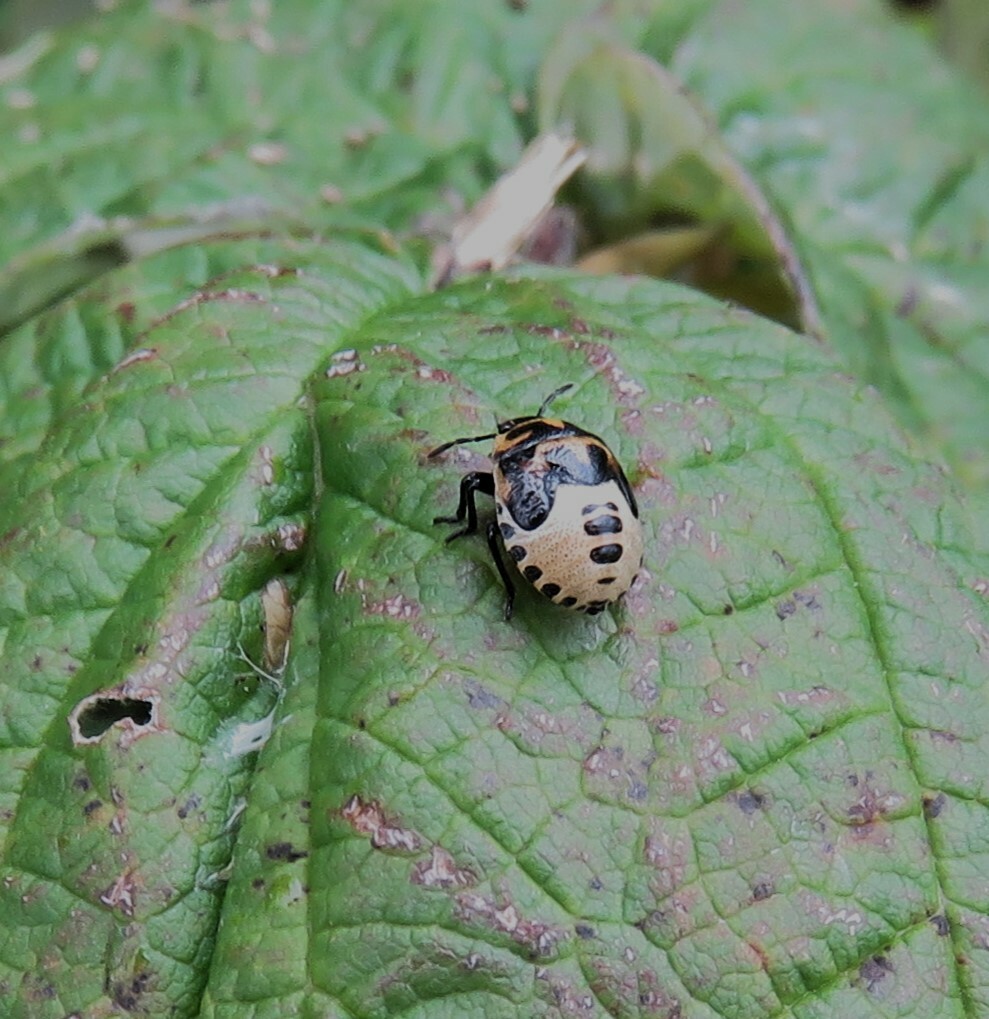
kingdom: Animalia
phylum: Arthropoda
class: Insecta
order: Hemiptera
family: Pentatomidae
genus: Cosmopepla
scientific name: Cosmopepla lintneriana
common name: Twice-stabbed stink bug
